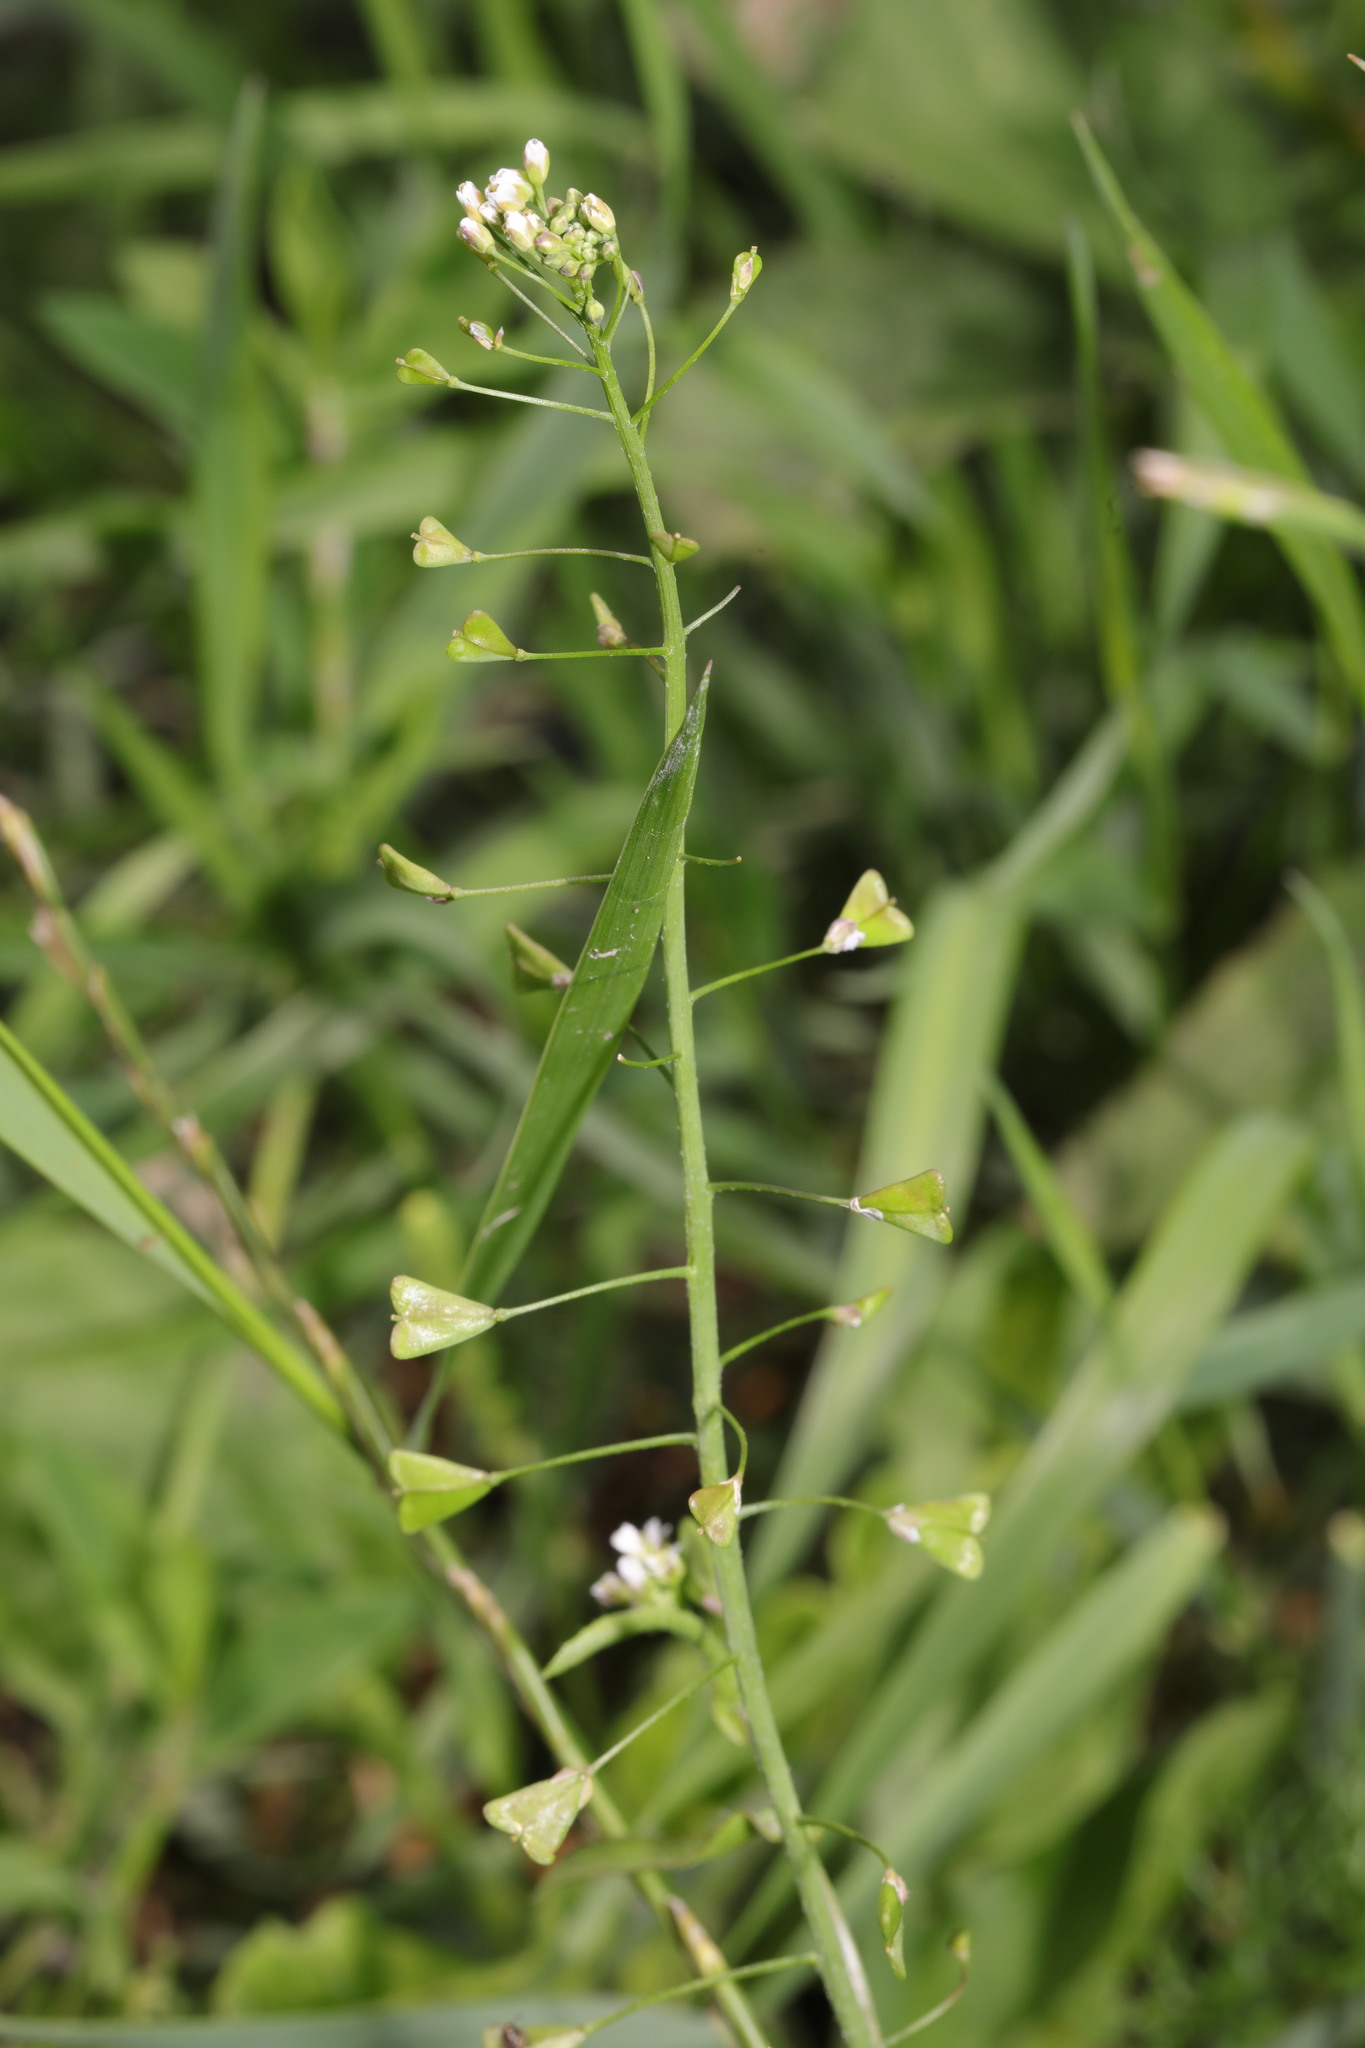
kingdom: Plantae
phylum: Tracheophyta
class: Magnoliopsida
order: Brassicales
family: Brassicaceae
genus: Capsella
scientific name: Capsella bursa-pastoris
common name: Shepherd's purse
